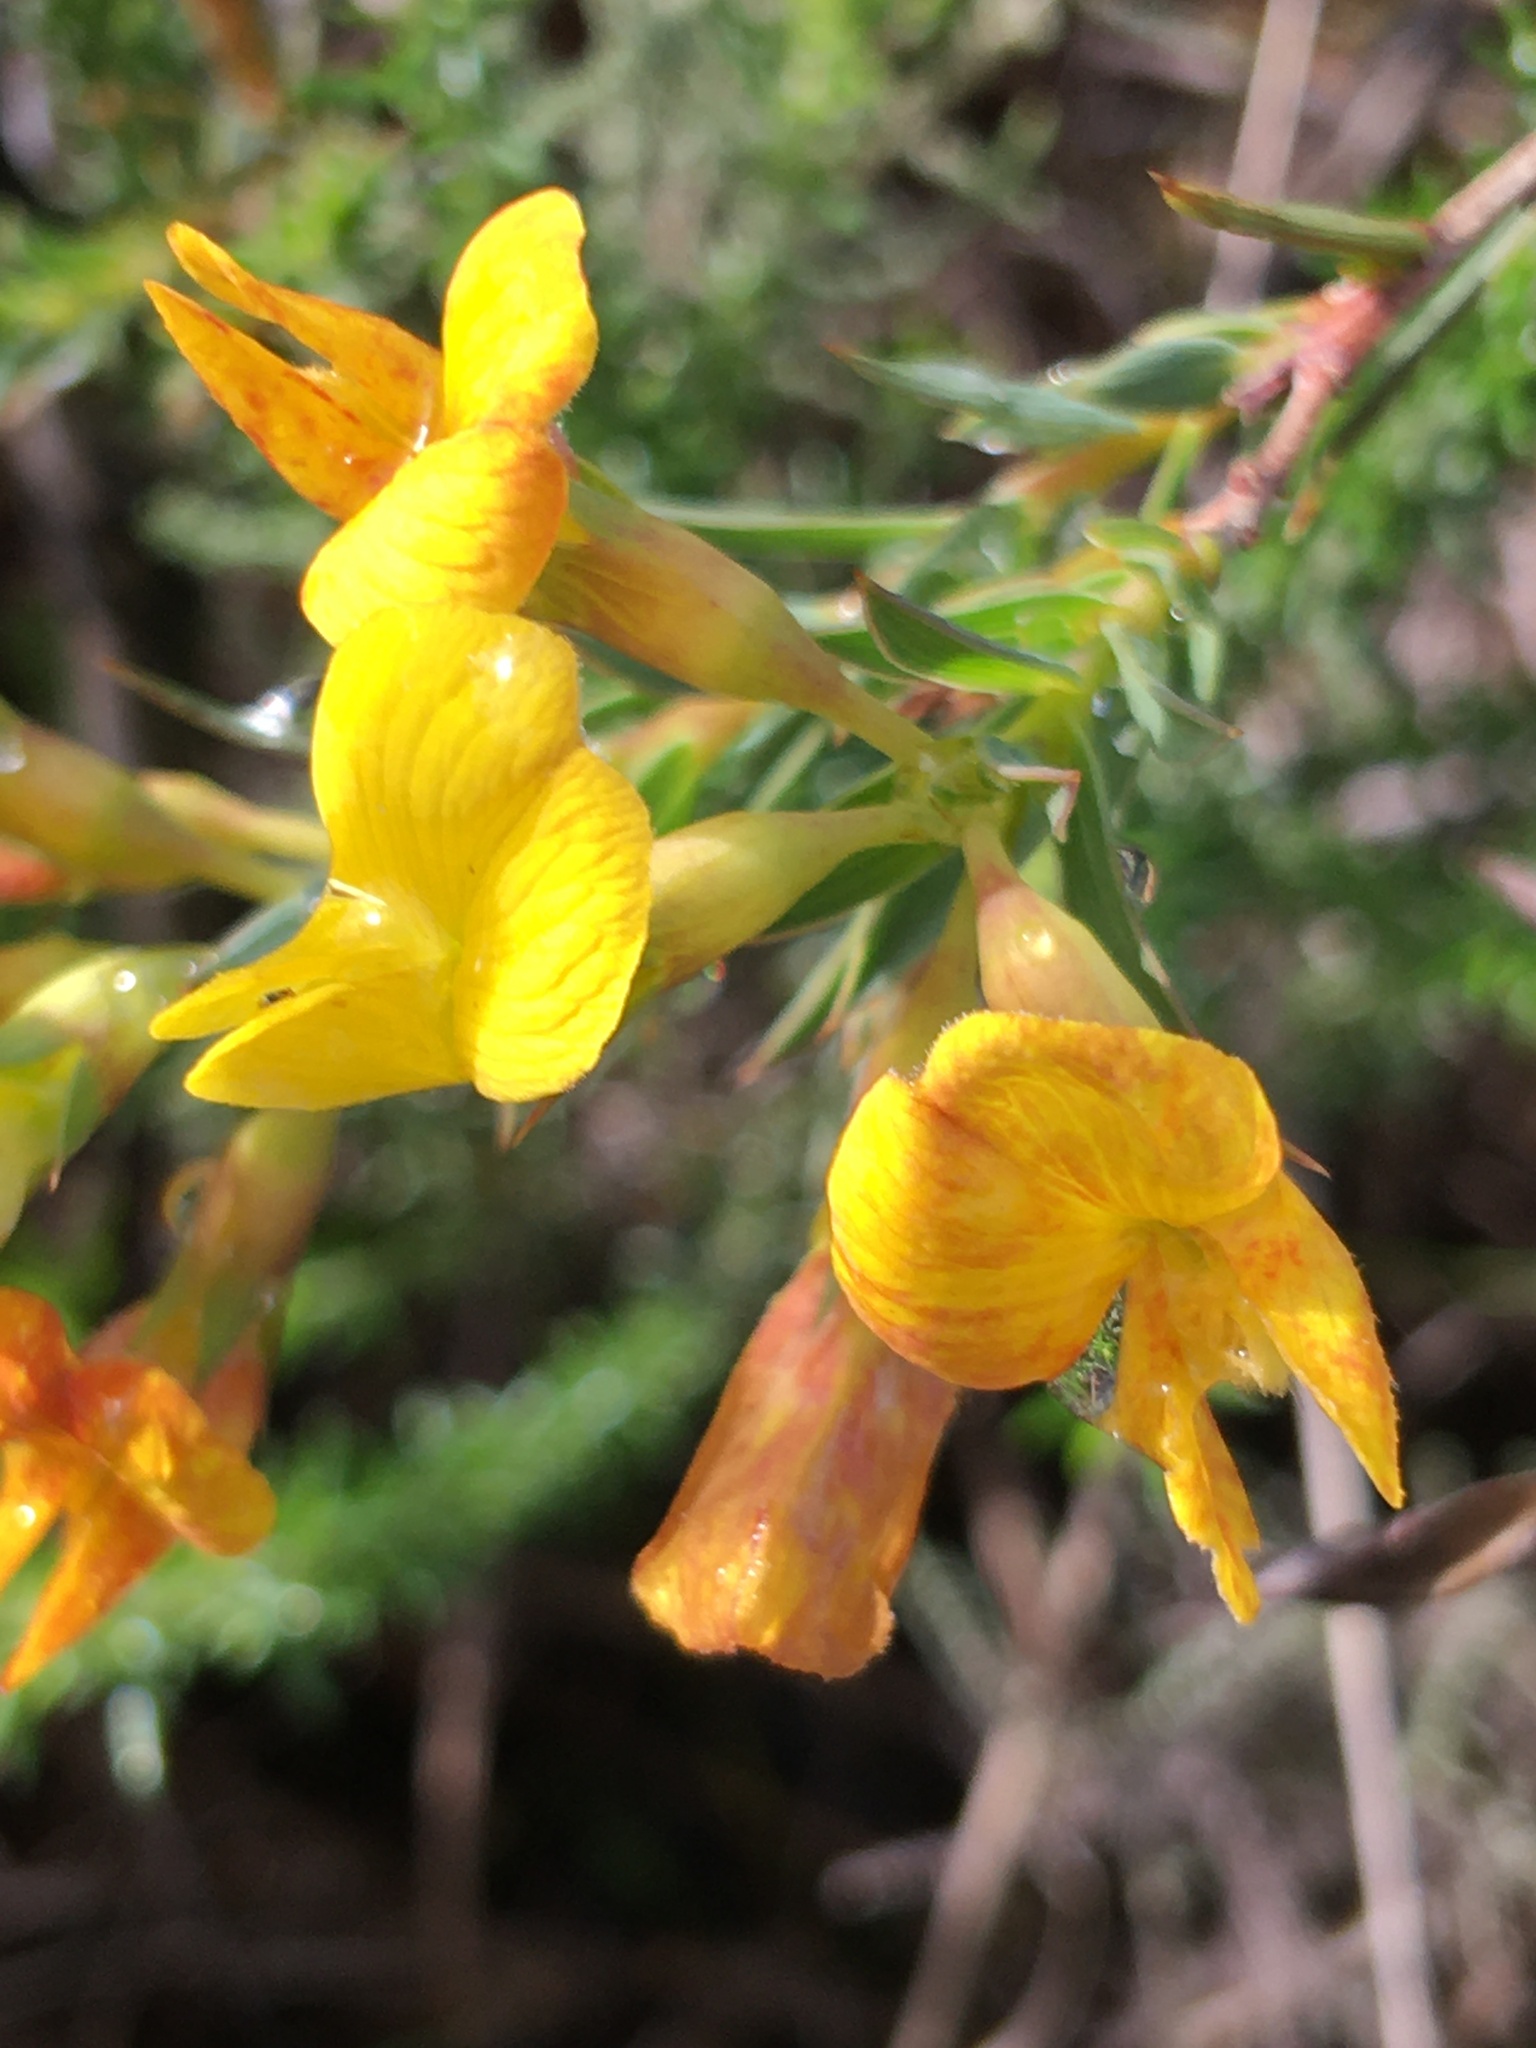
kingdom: Plantae
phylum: Tracheophyta
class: Magnoliopsida
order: Fabales
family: Fabaceae
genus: Aspalathus
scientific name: Aspalathus angustifolia
